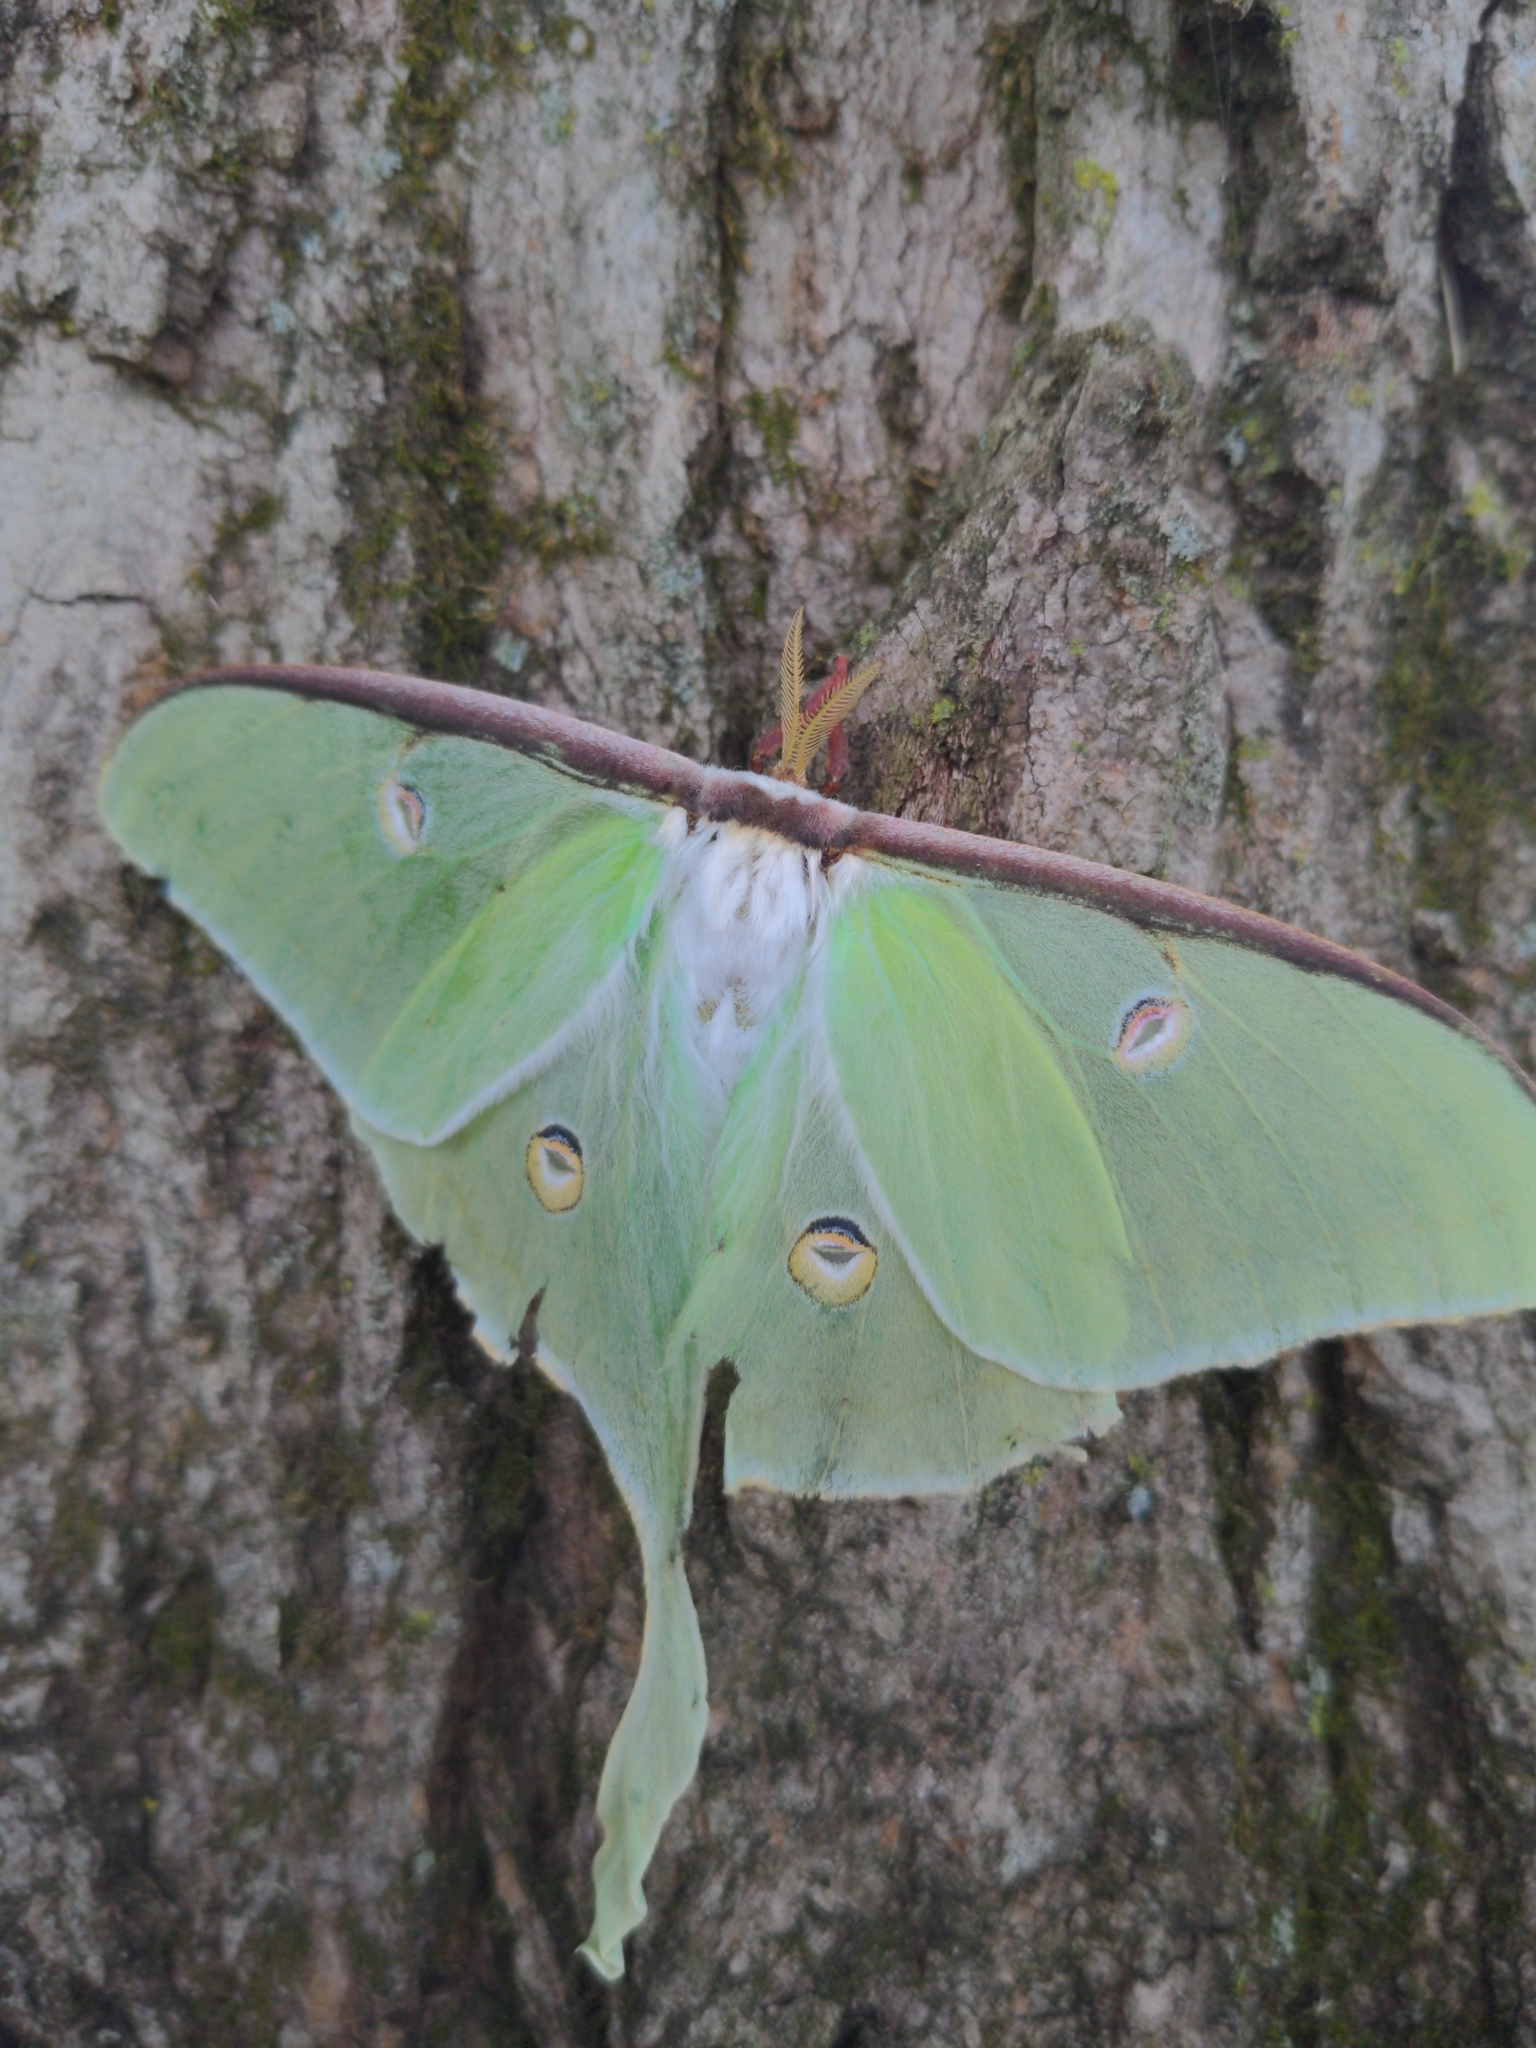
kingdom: Animalia
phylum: Arthropoda
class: Insecta
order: Lepidoptera
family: Saturniidae
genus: Actias
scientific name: Actias luna
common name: Luna moth
